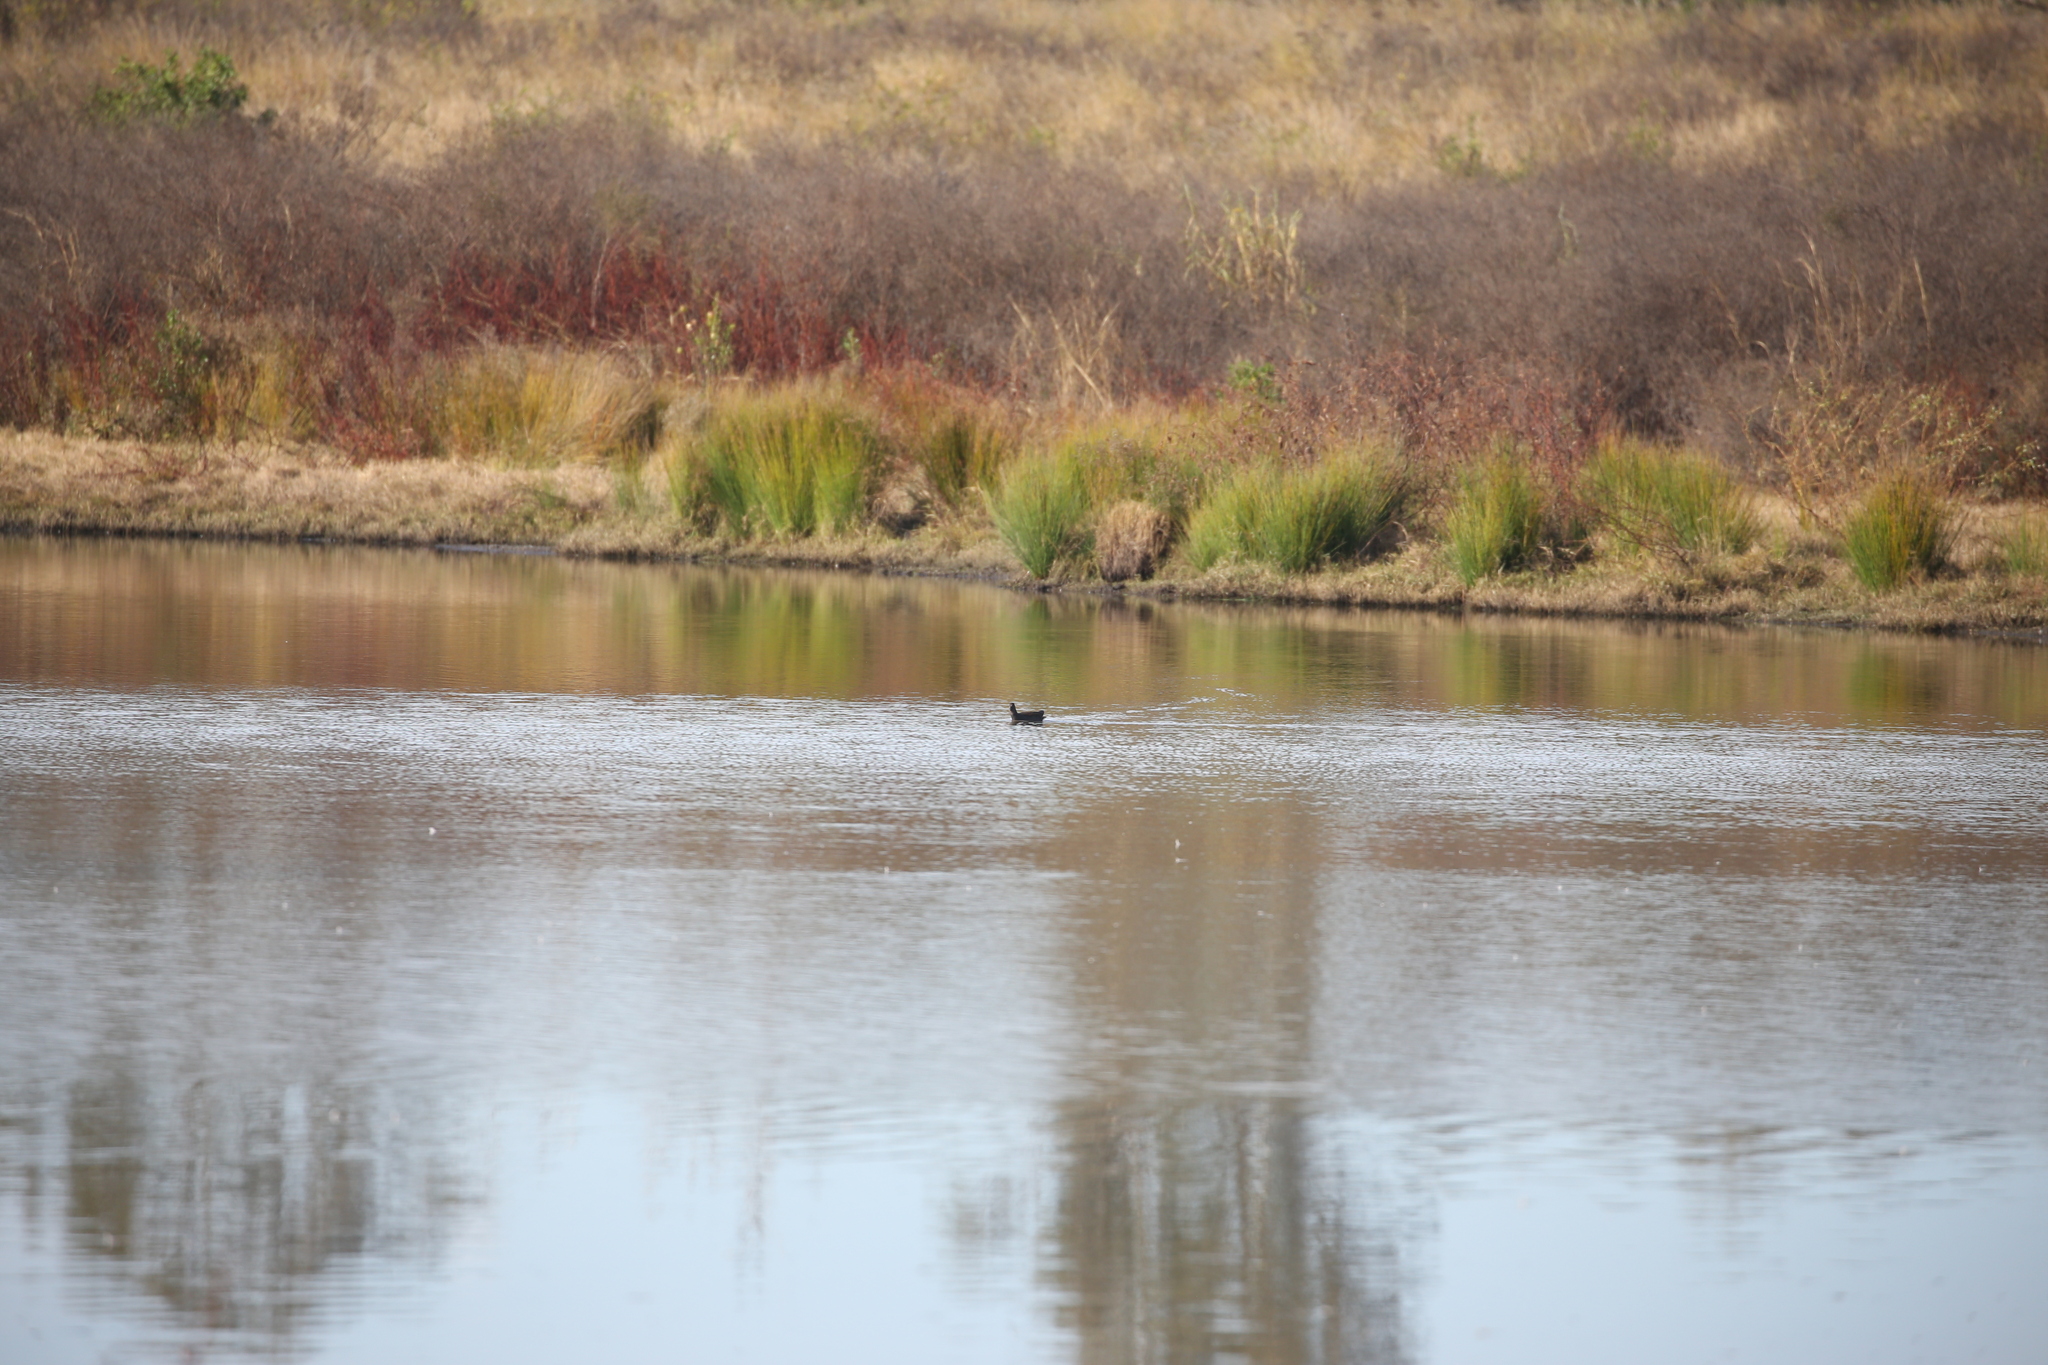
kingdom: Animalia
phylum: Chordata
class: Aves
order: Gruiformes
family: Rallidae
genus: Gallinula
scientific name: Gallinula tenebrosa
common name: Dusky moorhen
